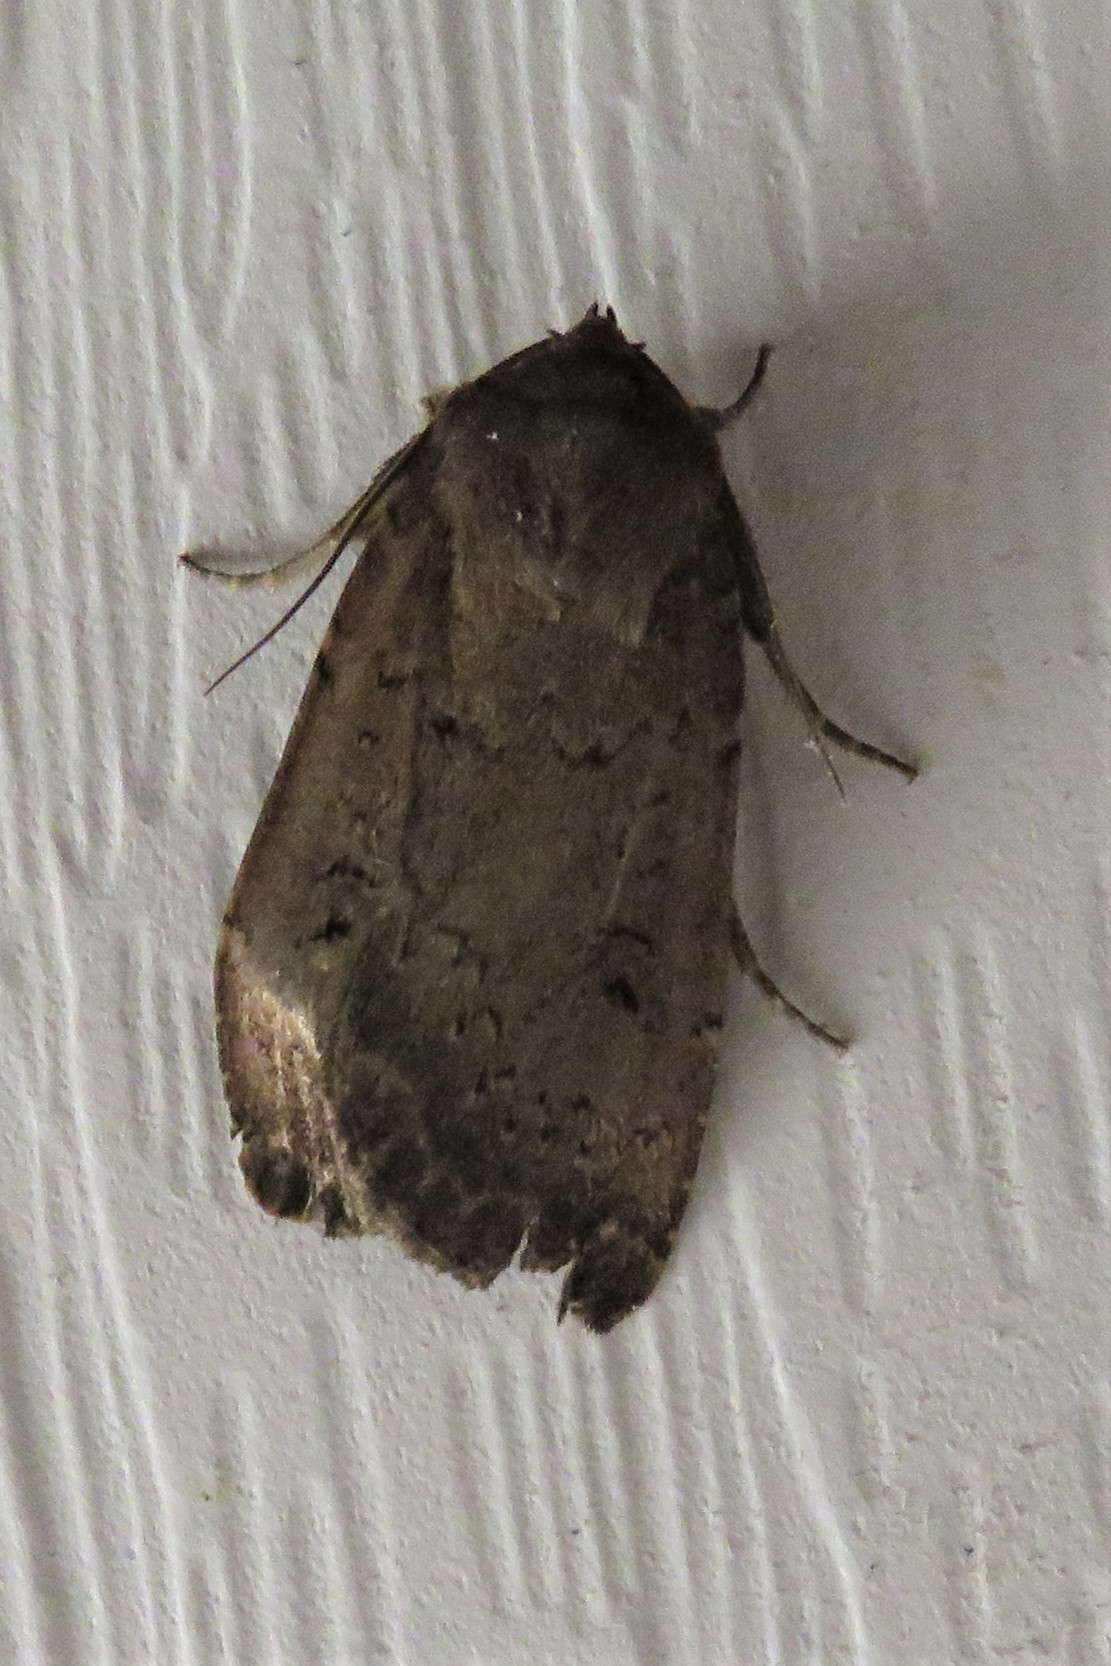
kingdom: Animalia
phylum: Arthropoda
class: Insecta
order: Lepidoptera
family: Noctuidae
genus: Graphiphora
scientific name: Graphiphora augur
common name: Double dart
